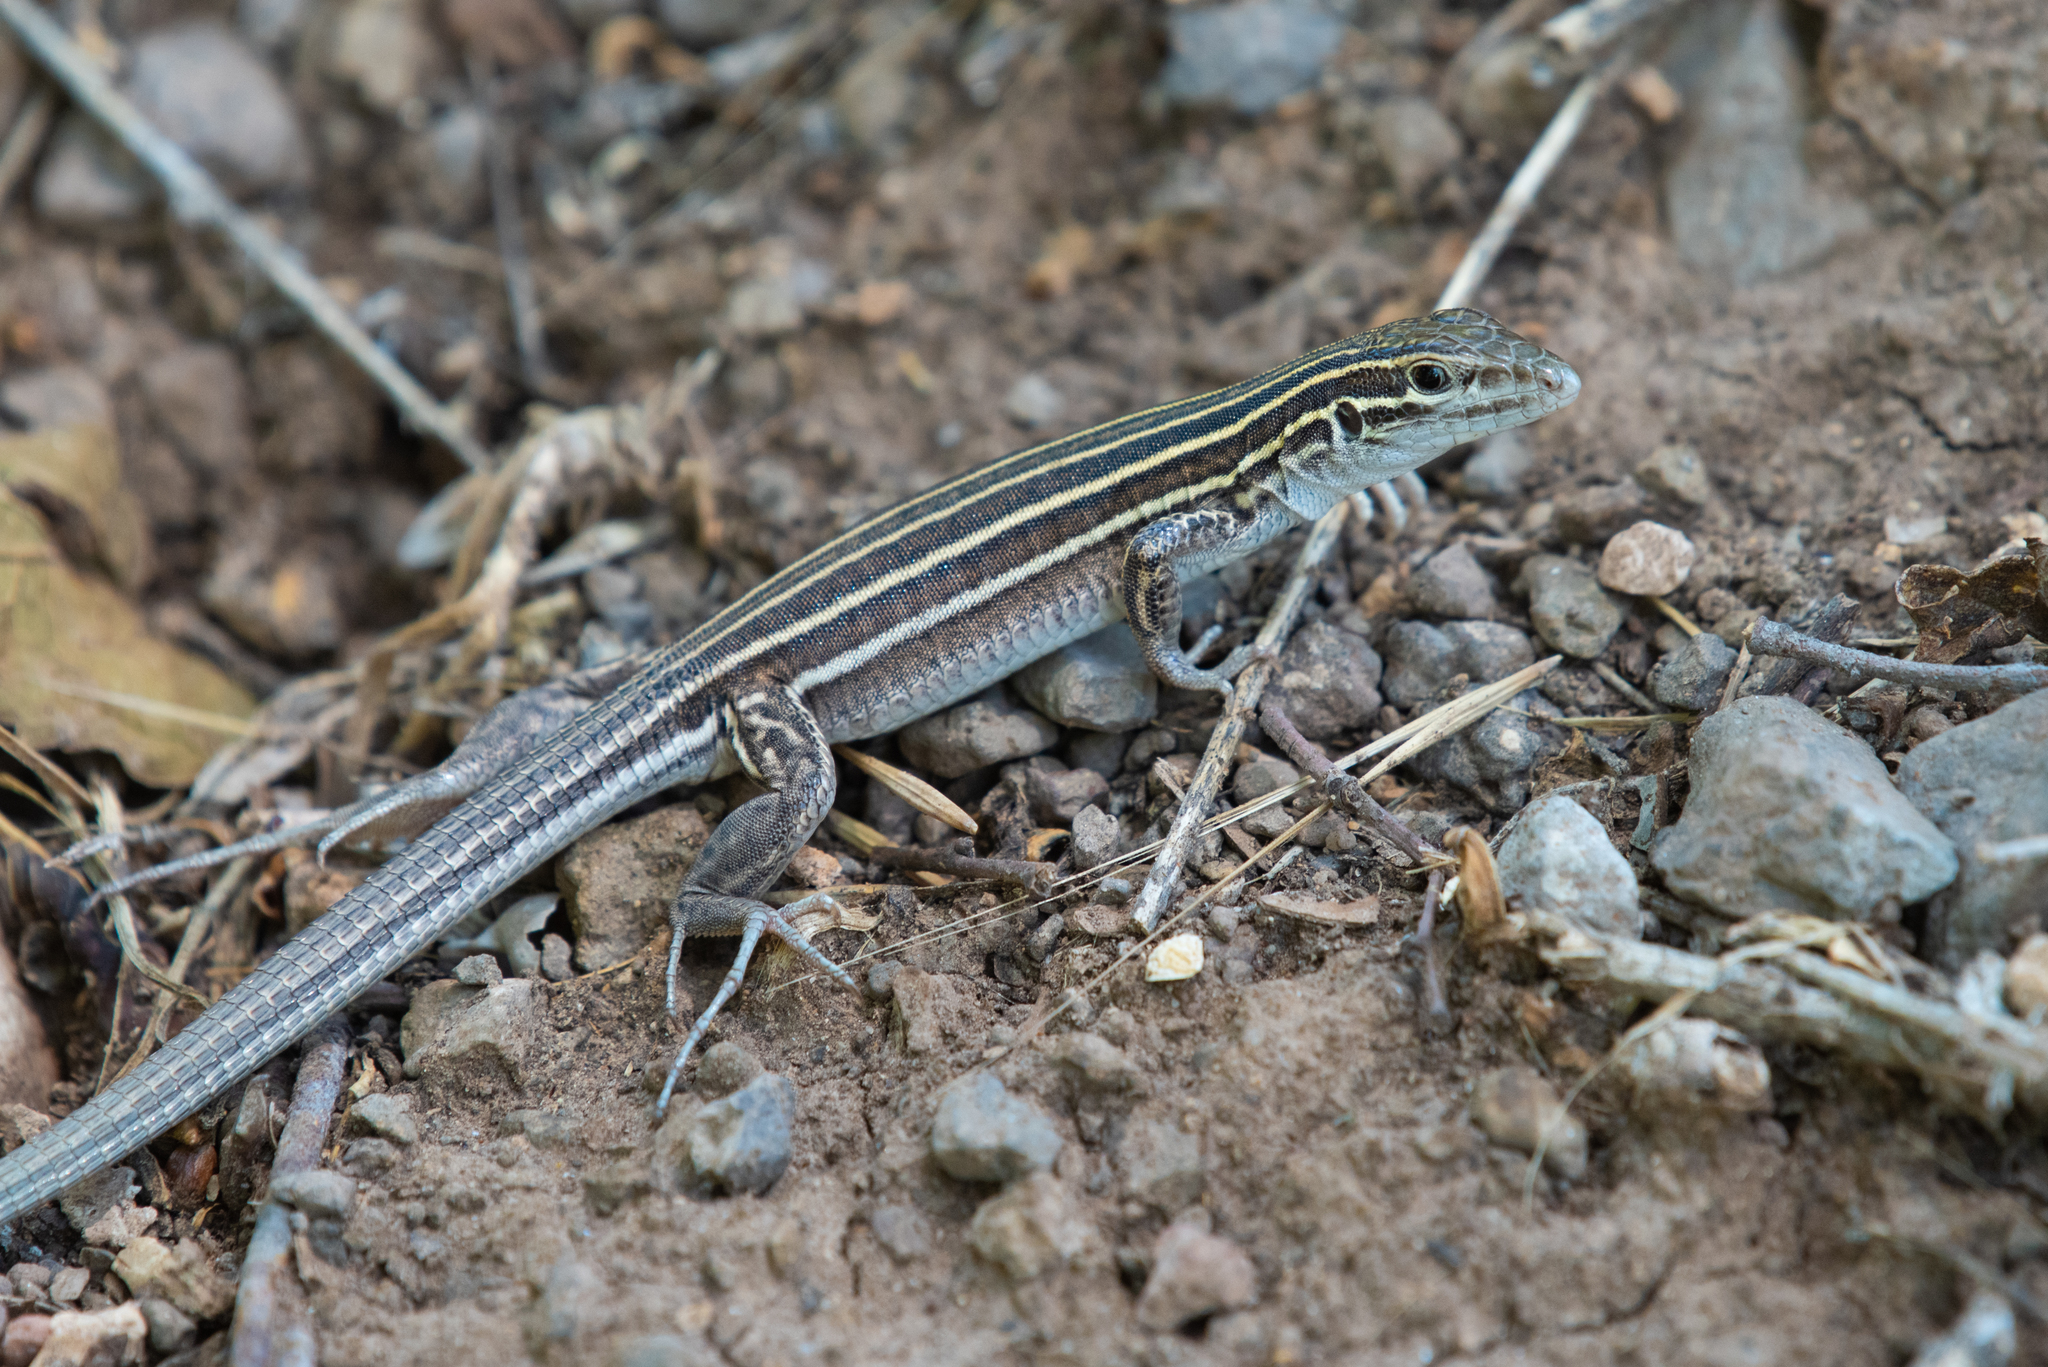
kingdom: Animalia
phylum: Chordata
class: Squamata
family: Teiidae
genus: Aspidoscelis
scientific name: Aspidoscelis velox
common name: Plateau striped whiptail
